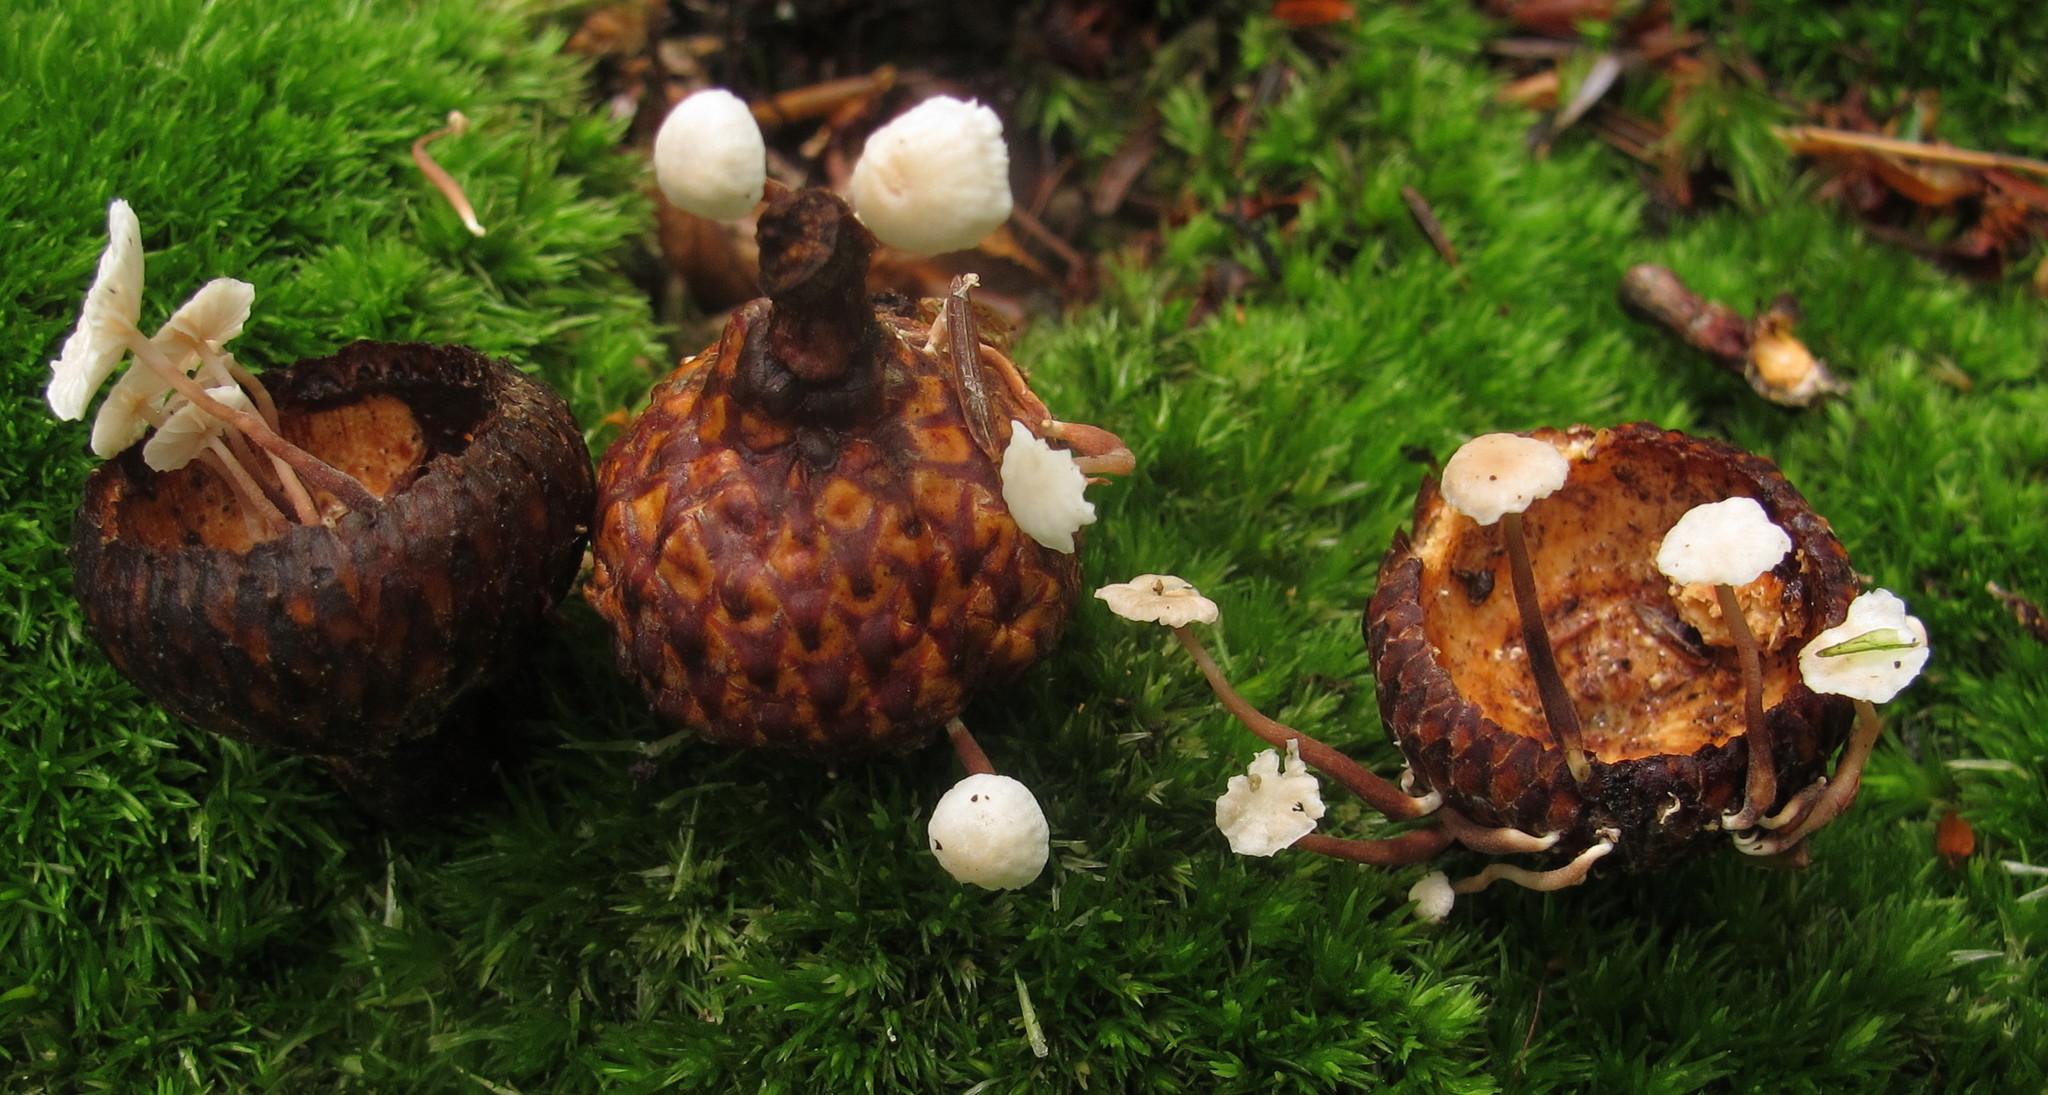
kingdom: Fungi
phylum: Basidiomycota
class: Agaricomycetes
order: Agaricales
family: Omphalotaceae
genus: Marasmiellus
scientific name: Marasmiellus praeacutus
